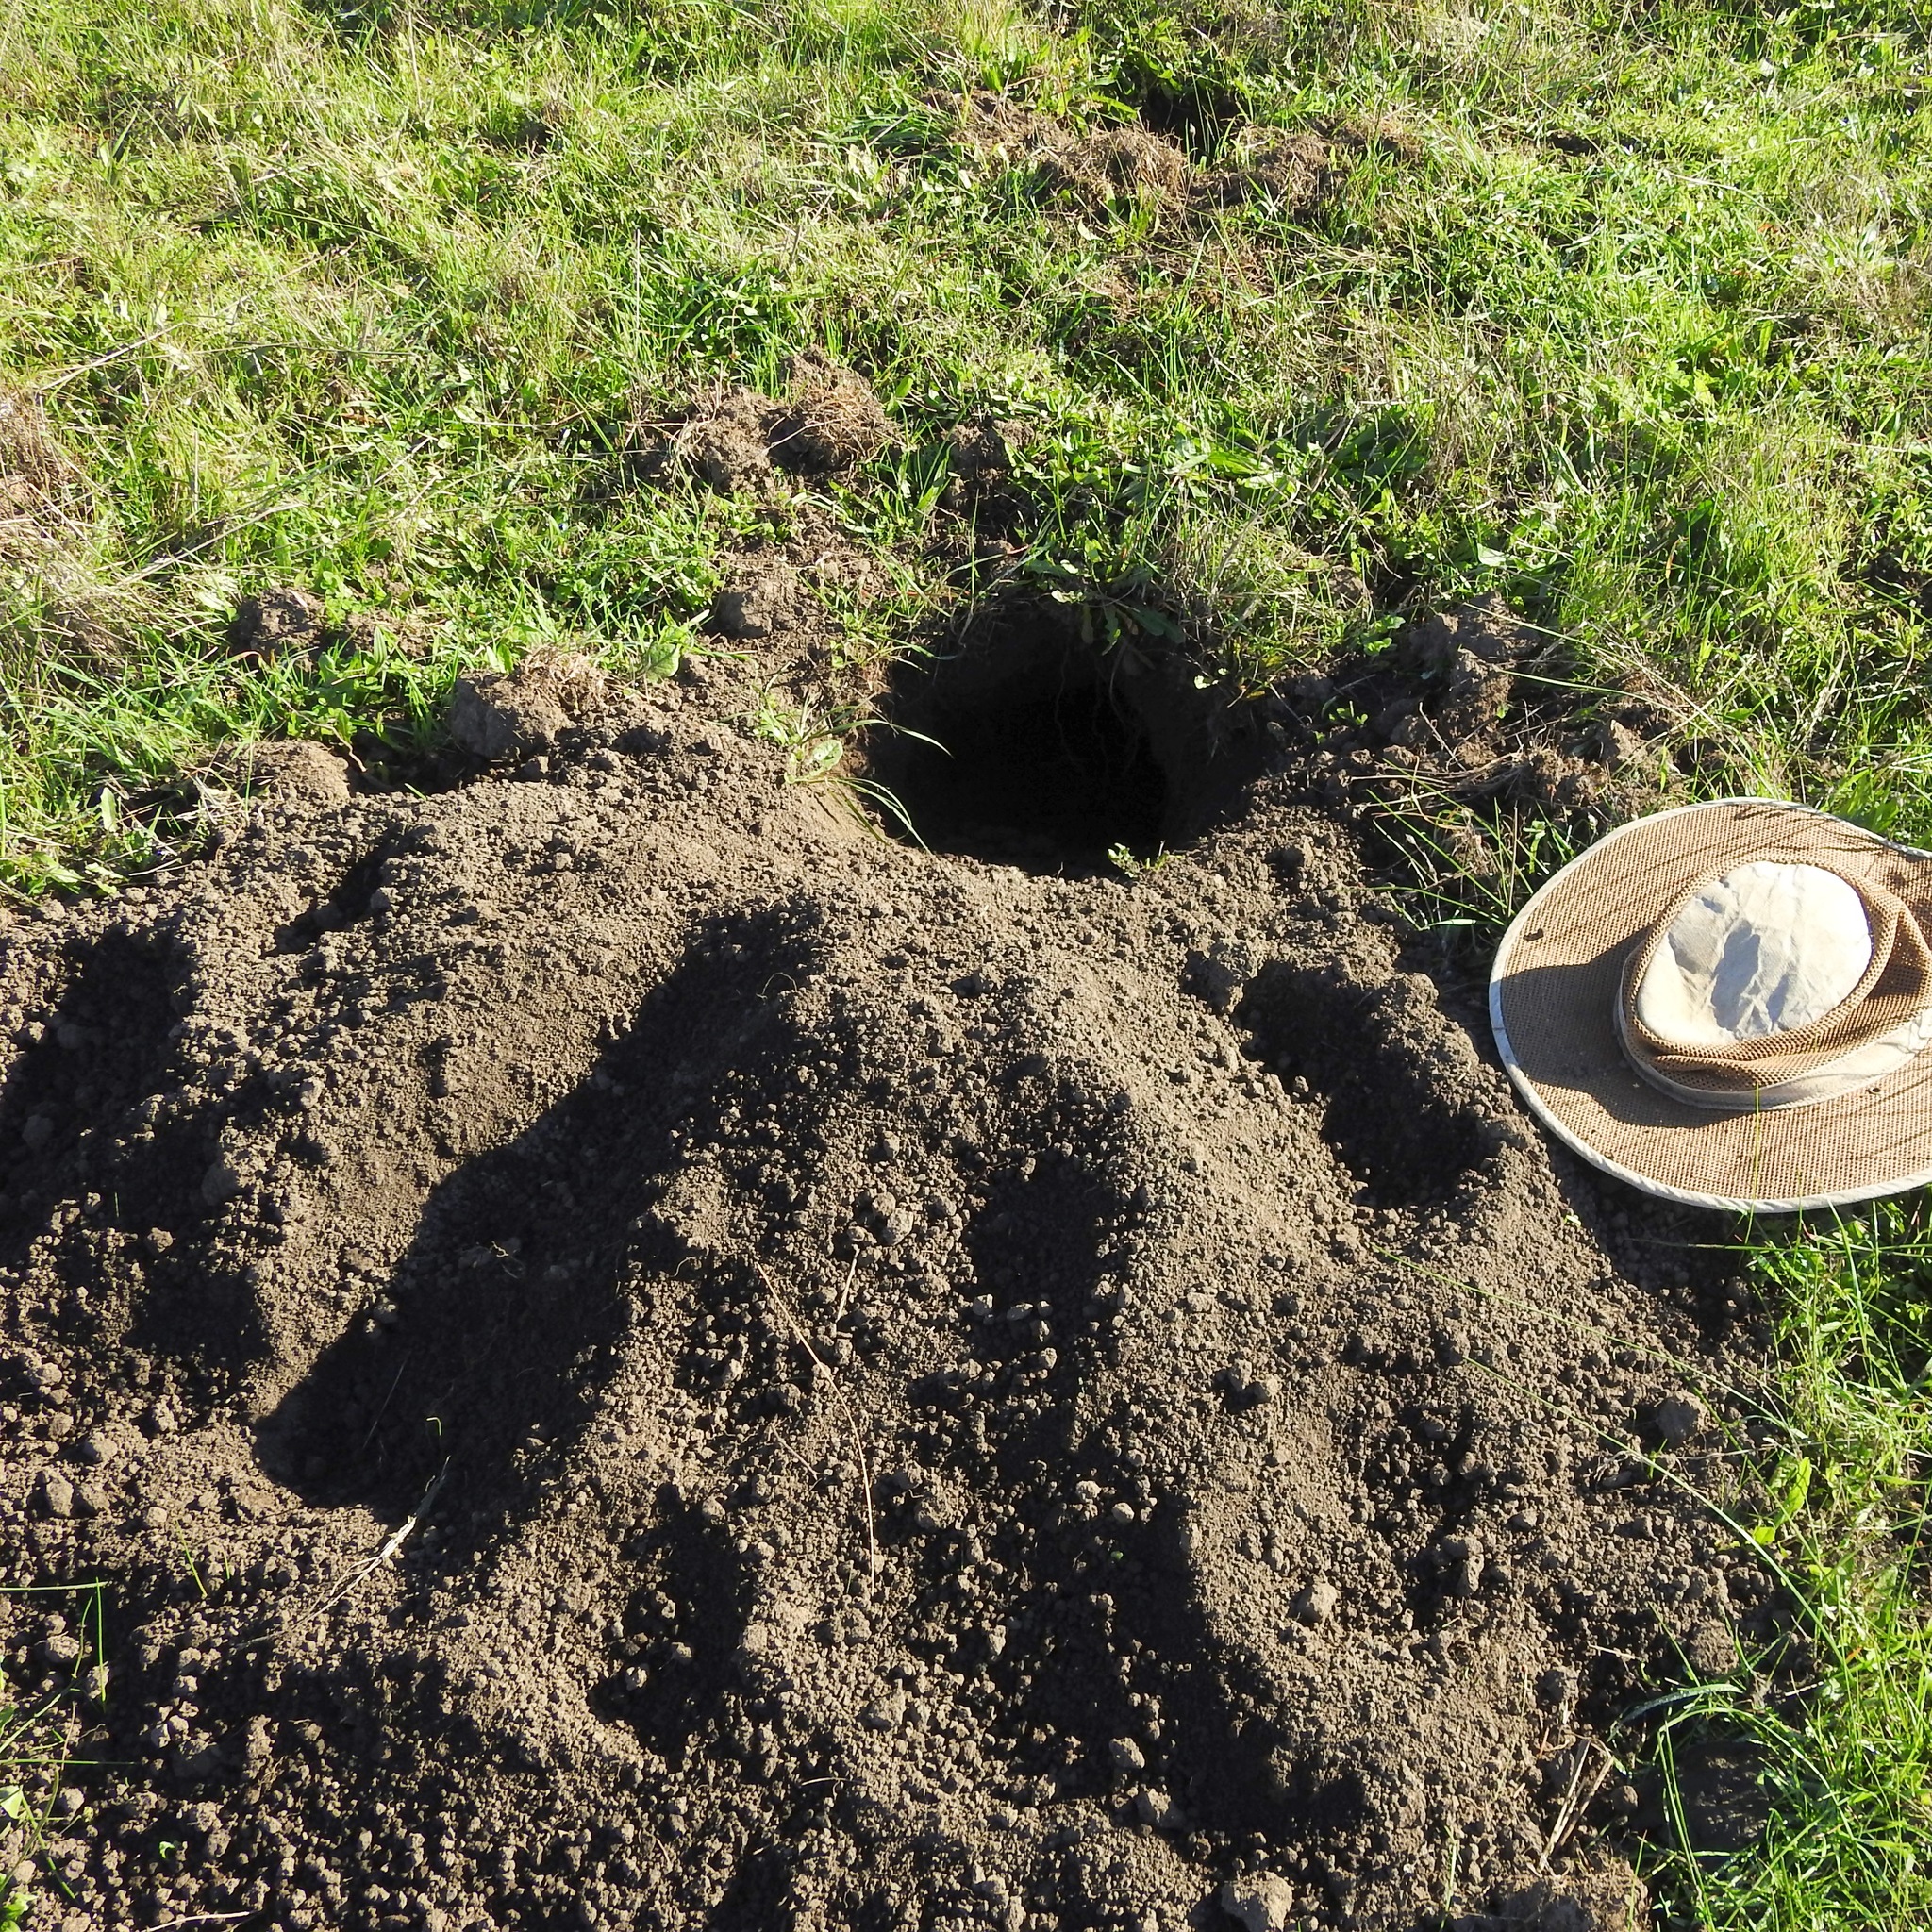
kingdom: Animalia
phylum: Chordata
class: Mammalia
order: Carnivora
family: Mustelidae
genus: Taxidea
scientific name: Taxidea taxus
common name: American badger
